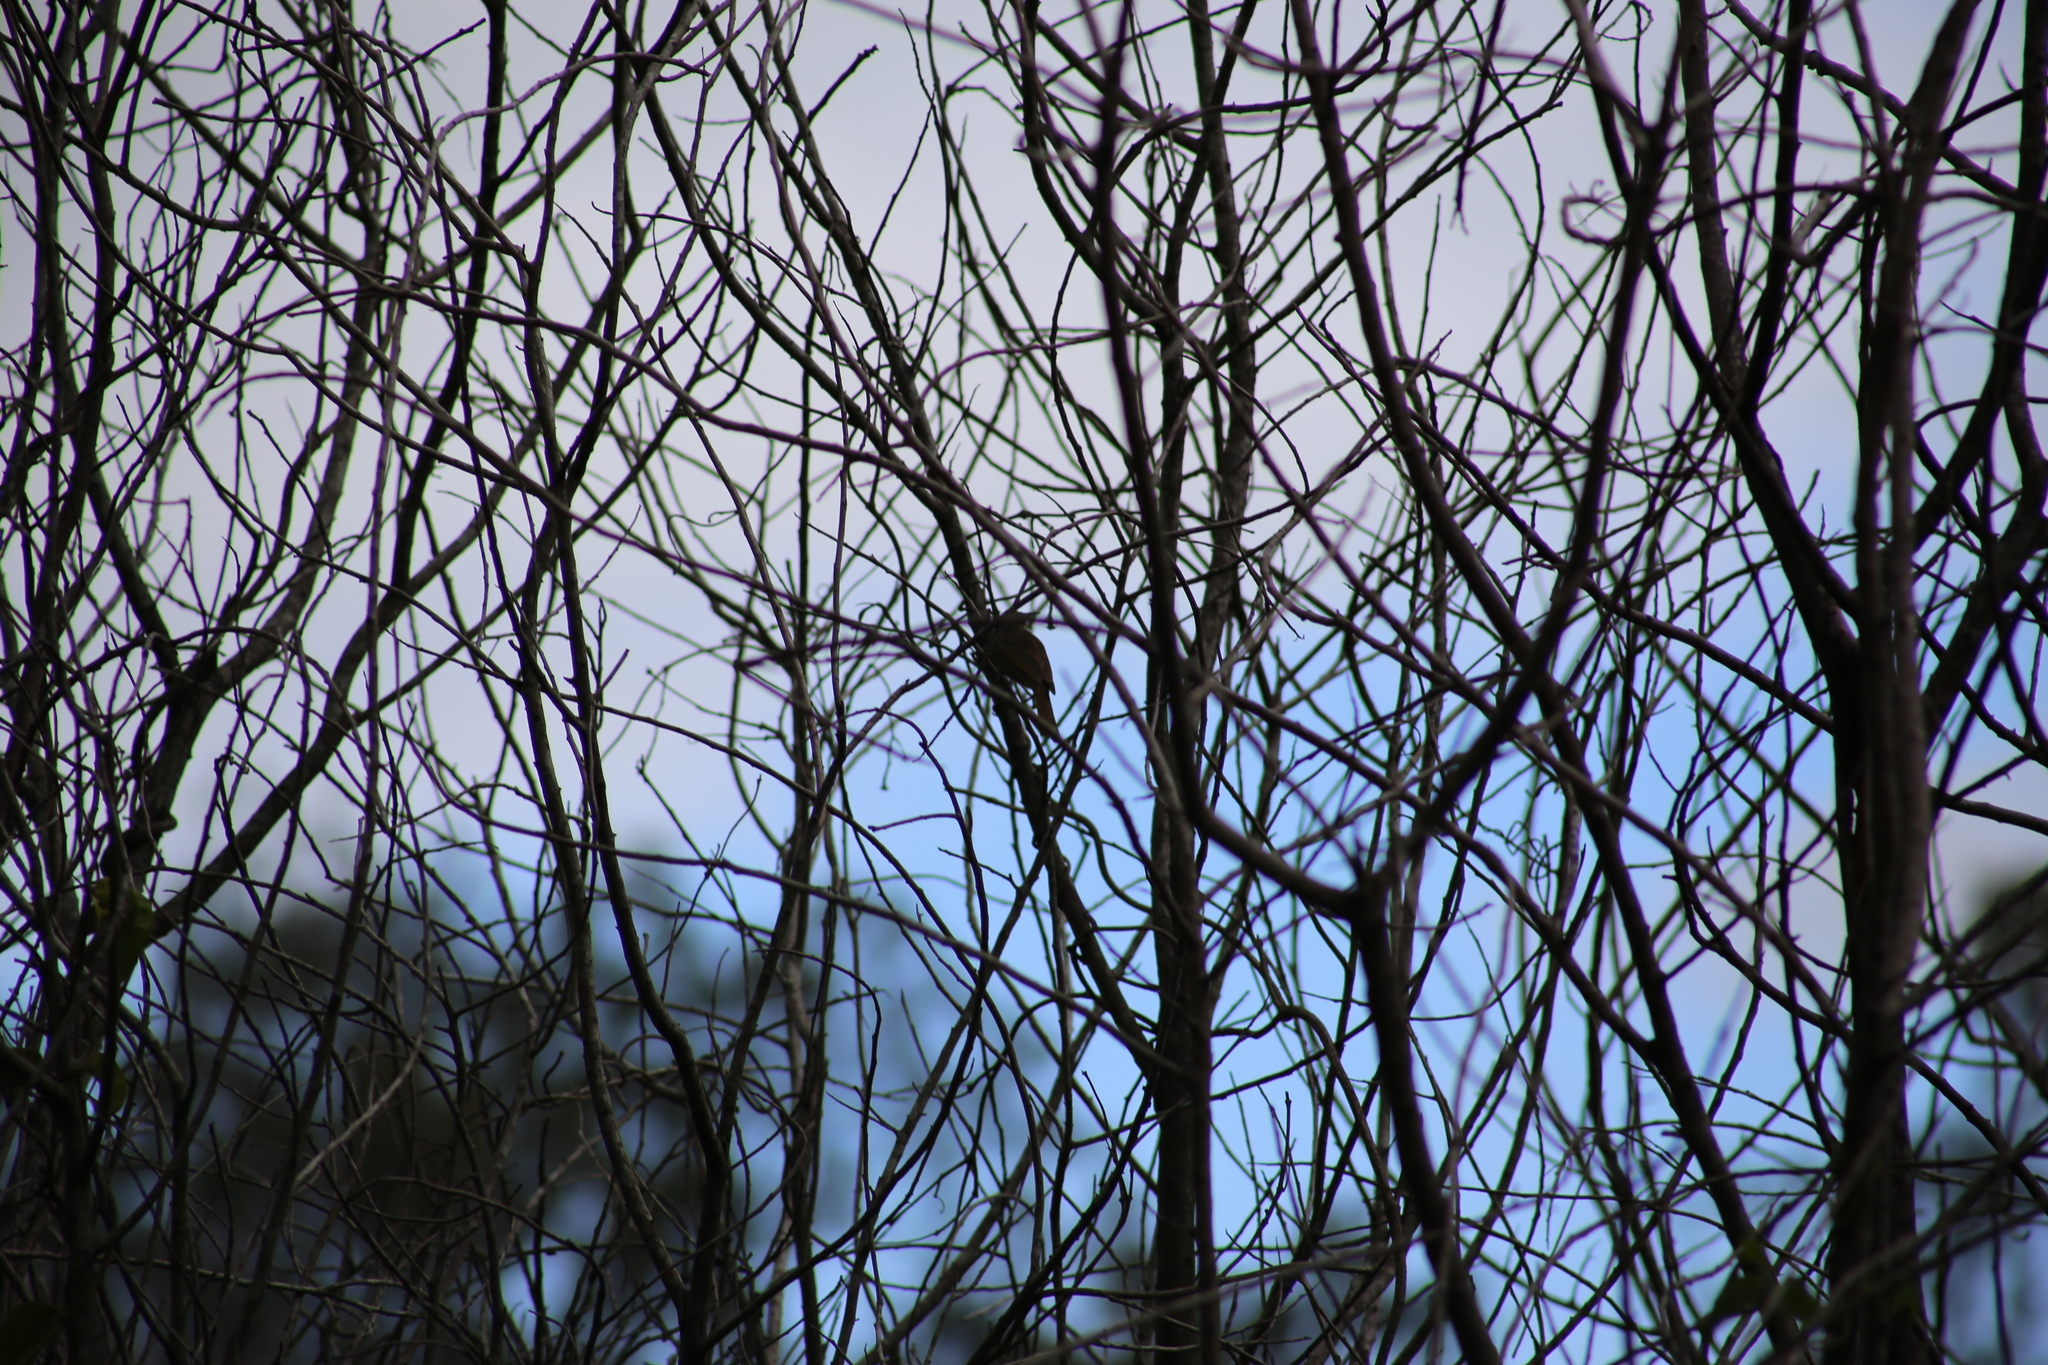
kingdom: Animalia
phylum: Chordata
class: Aves
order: Passeriformes
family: Meliphagidae
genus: Lichmera
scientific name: Lichmera indistincta
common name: Brown honeyeater
